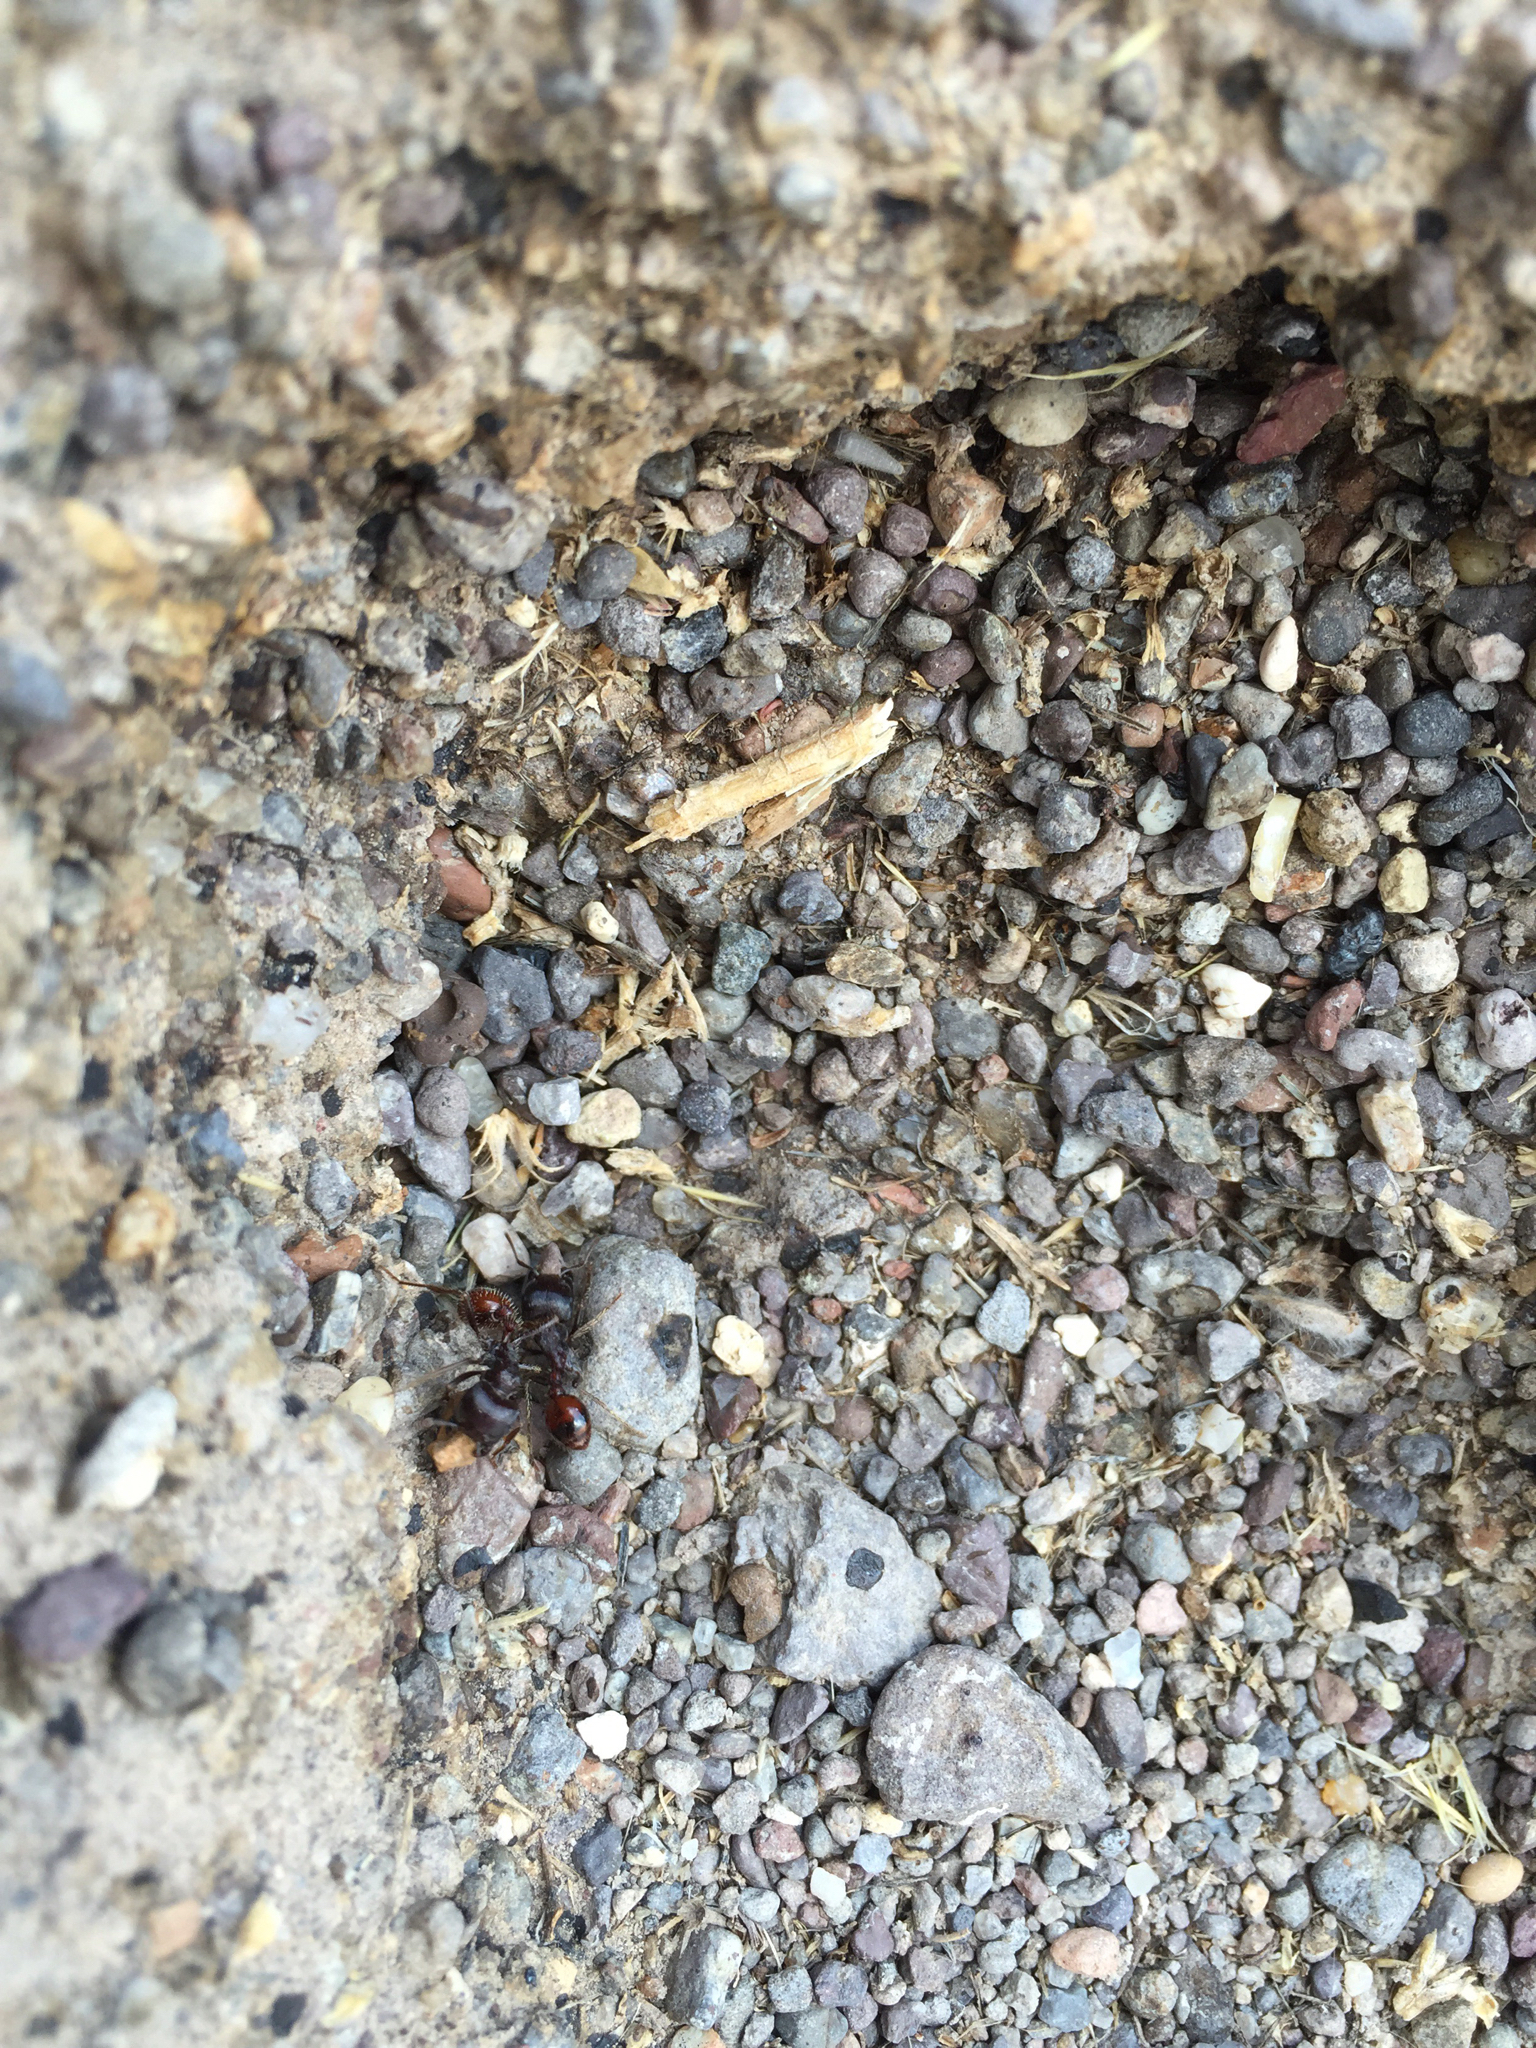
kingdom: Animalia
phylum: Arthropoda
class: Insecta
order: Hymenoptera
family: Formicidae
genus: Pogonomyrmex
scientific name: Pogonomyrmex rugosus
